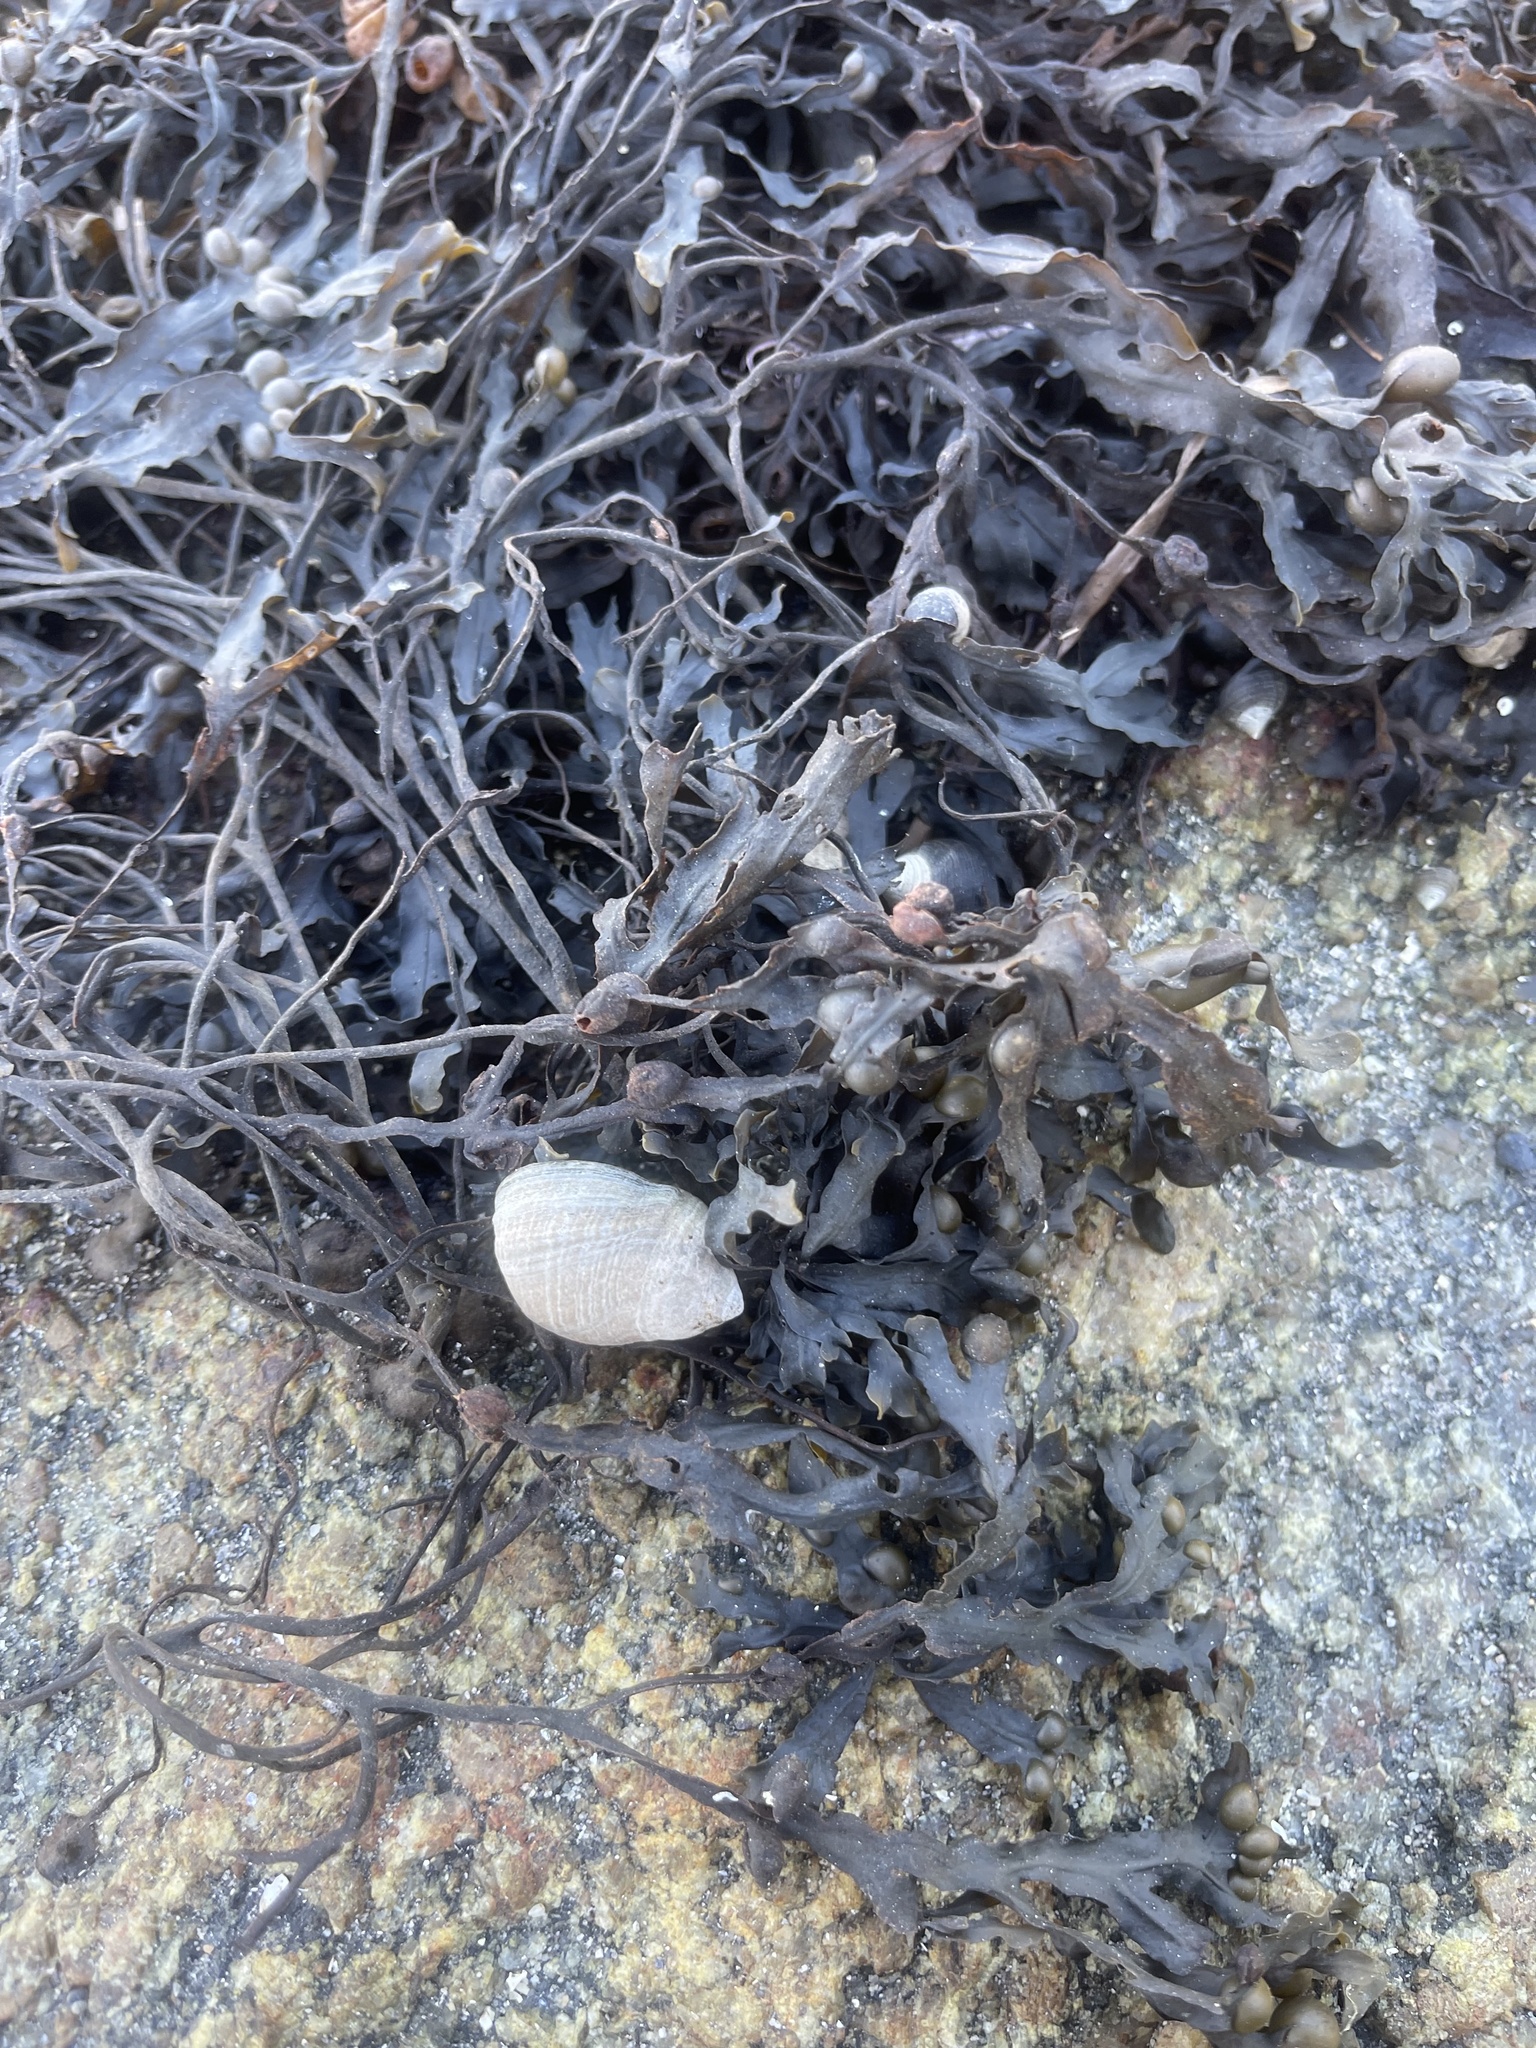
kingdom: Animalia
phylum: Mollusca
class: Gastropoda
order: Littorinimorpha
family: Littorinidae
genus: Littorina
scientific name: Littorina littorea
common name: Common periwinkle
